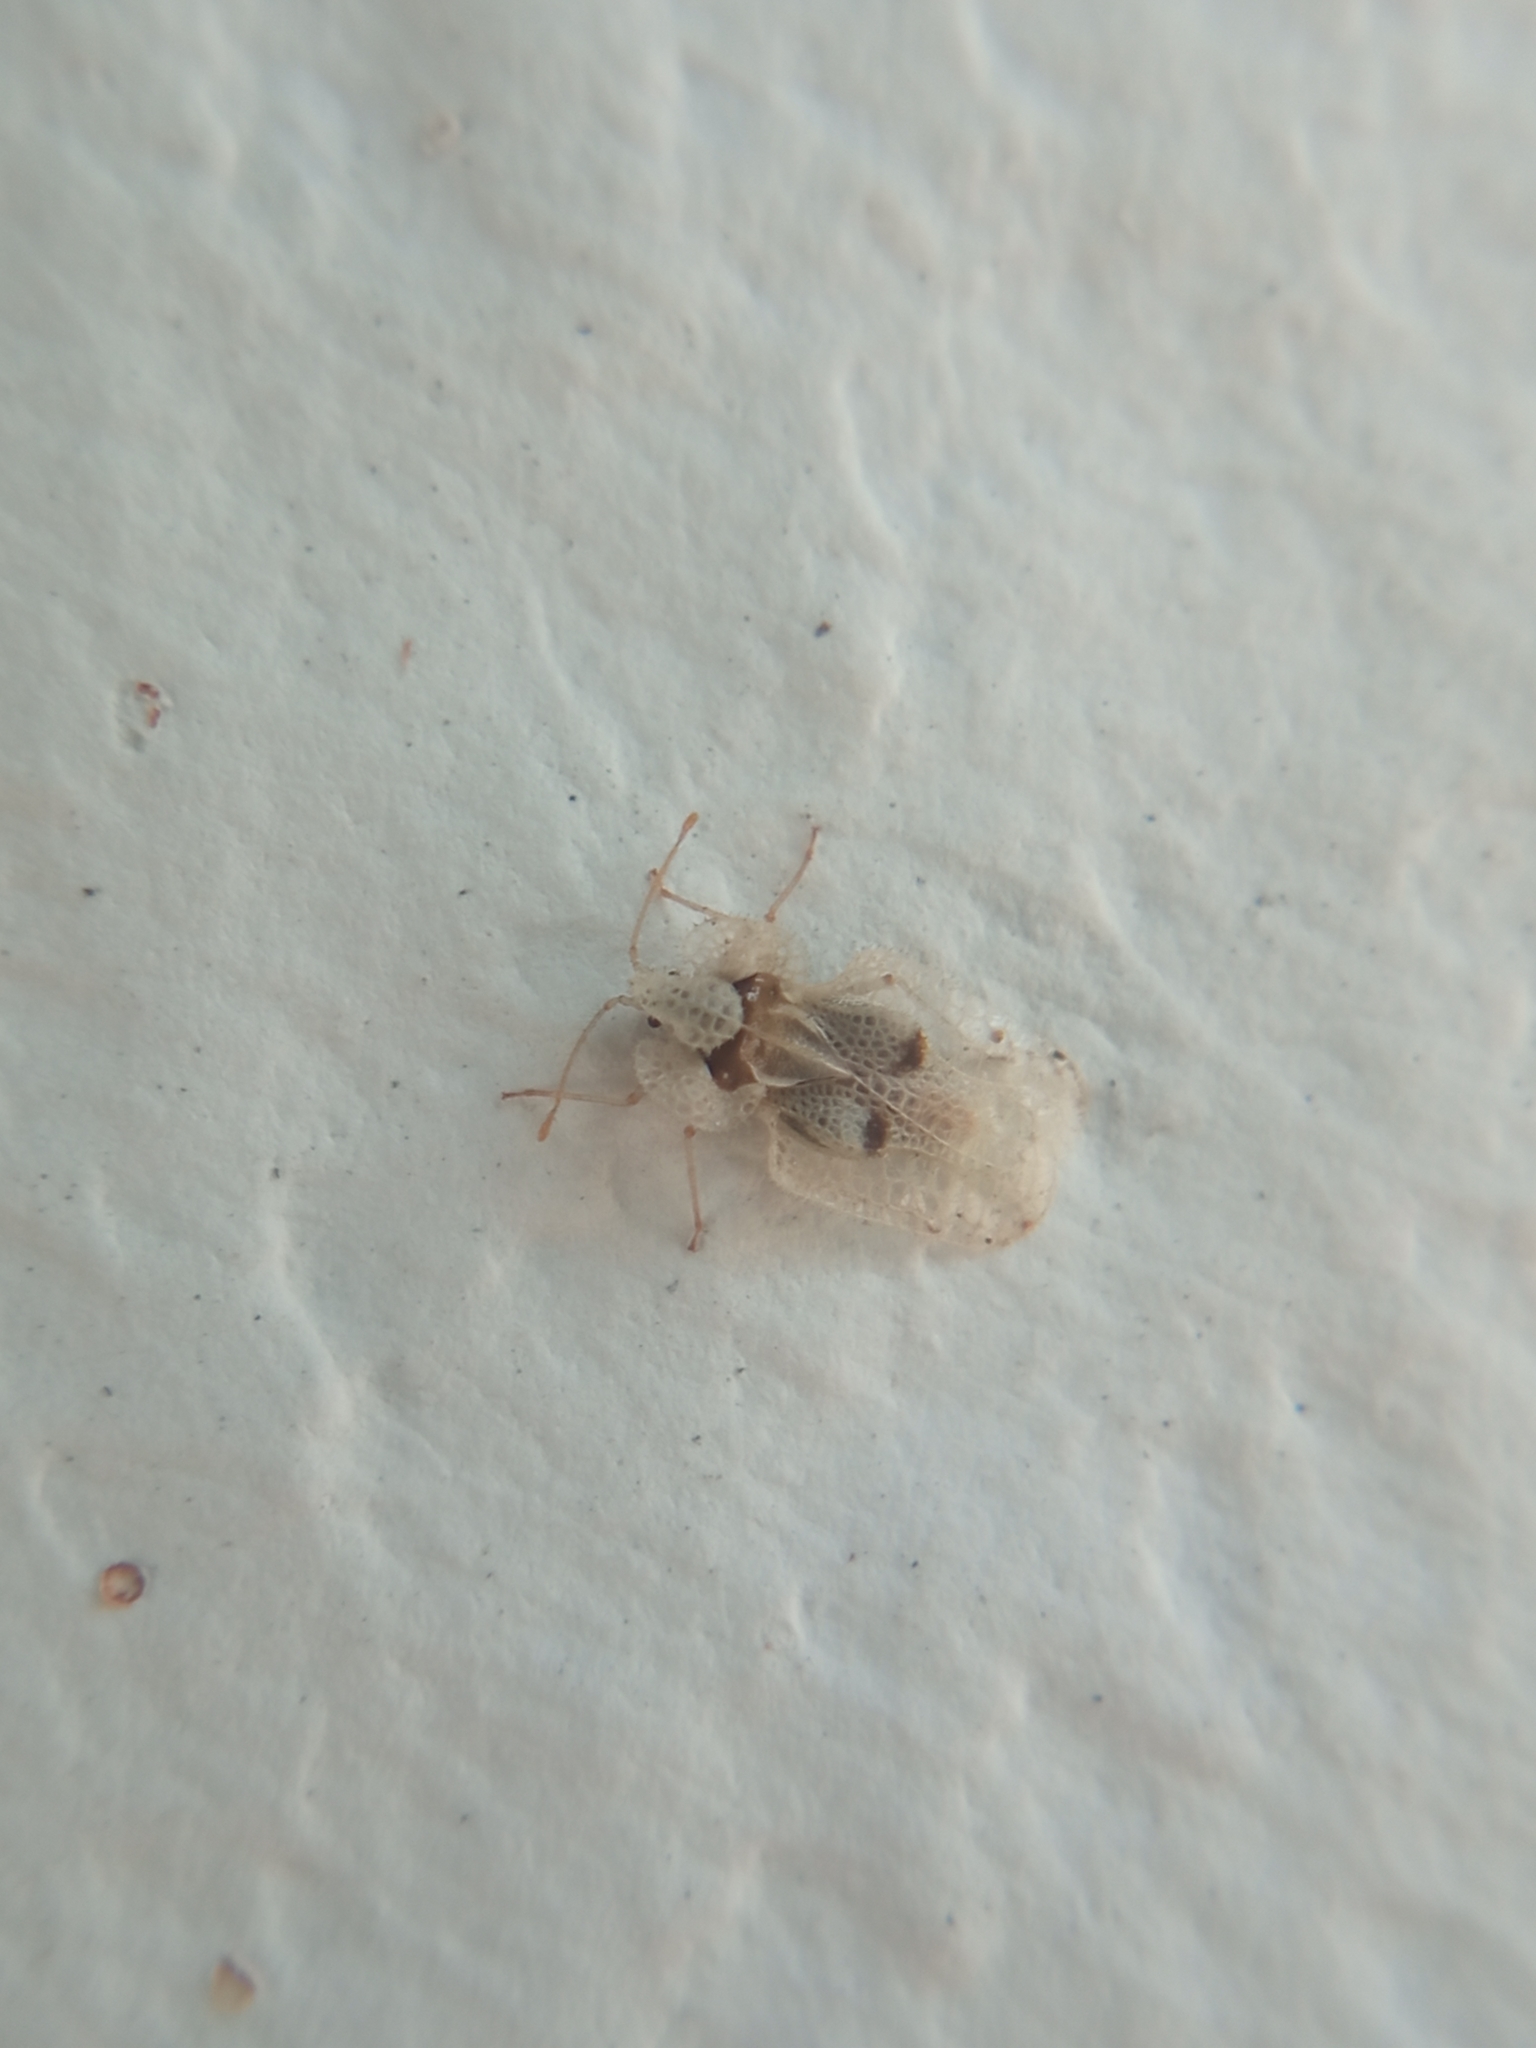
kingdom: Animalia
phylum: Arthropoda
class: Insecta
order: Hemiptera
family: Tingidae
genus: Corythucha
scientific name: Corythucha ciliata
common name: Sycamore lace bug
